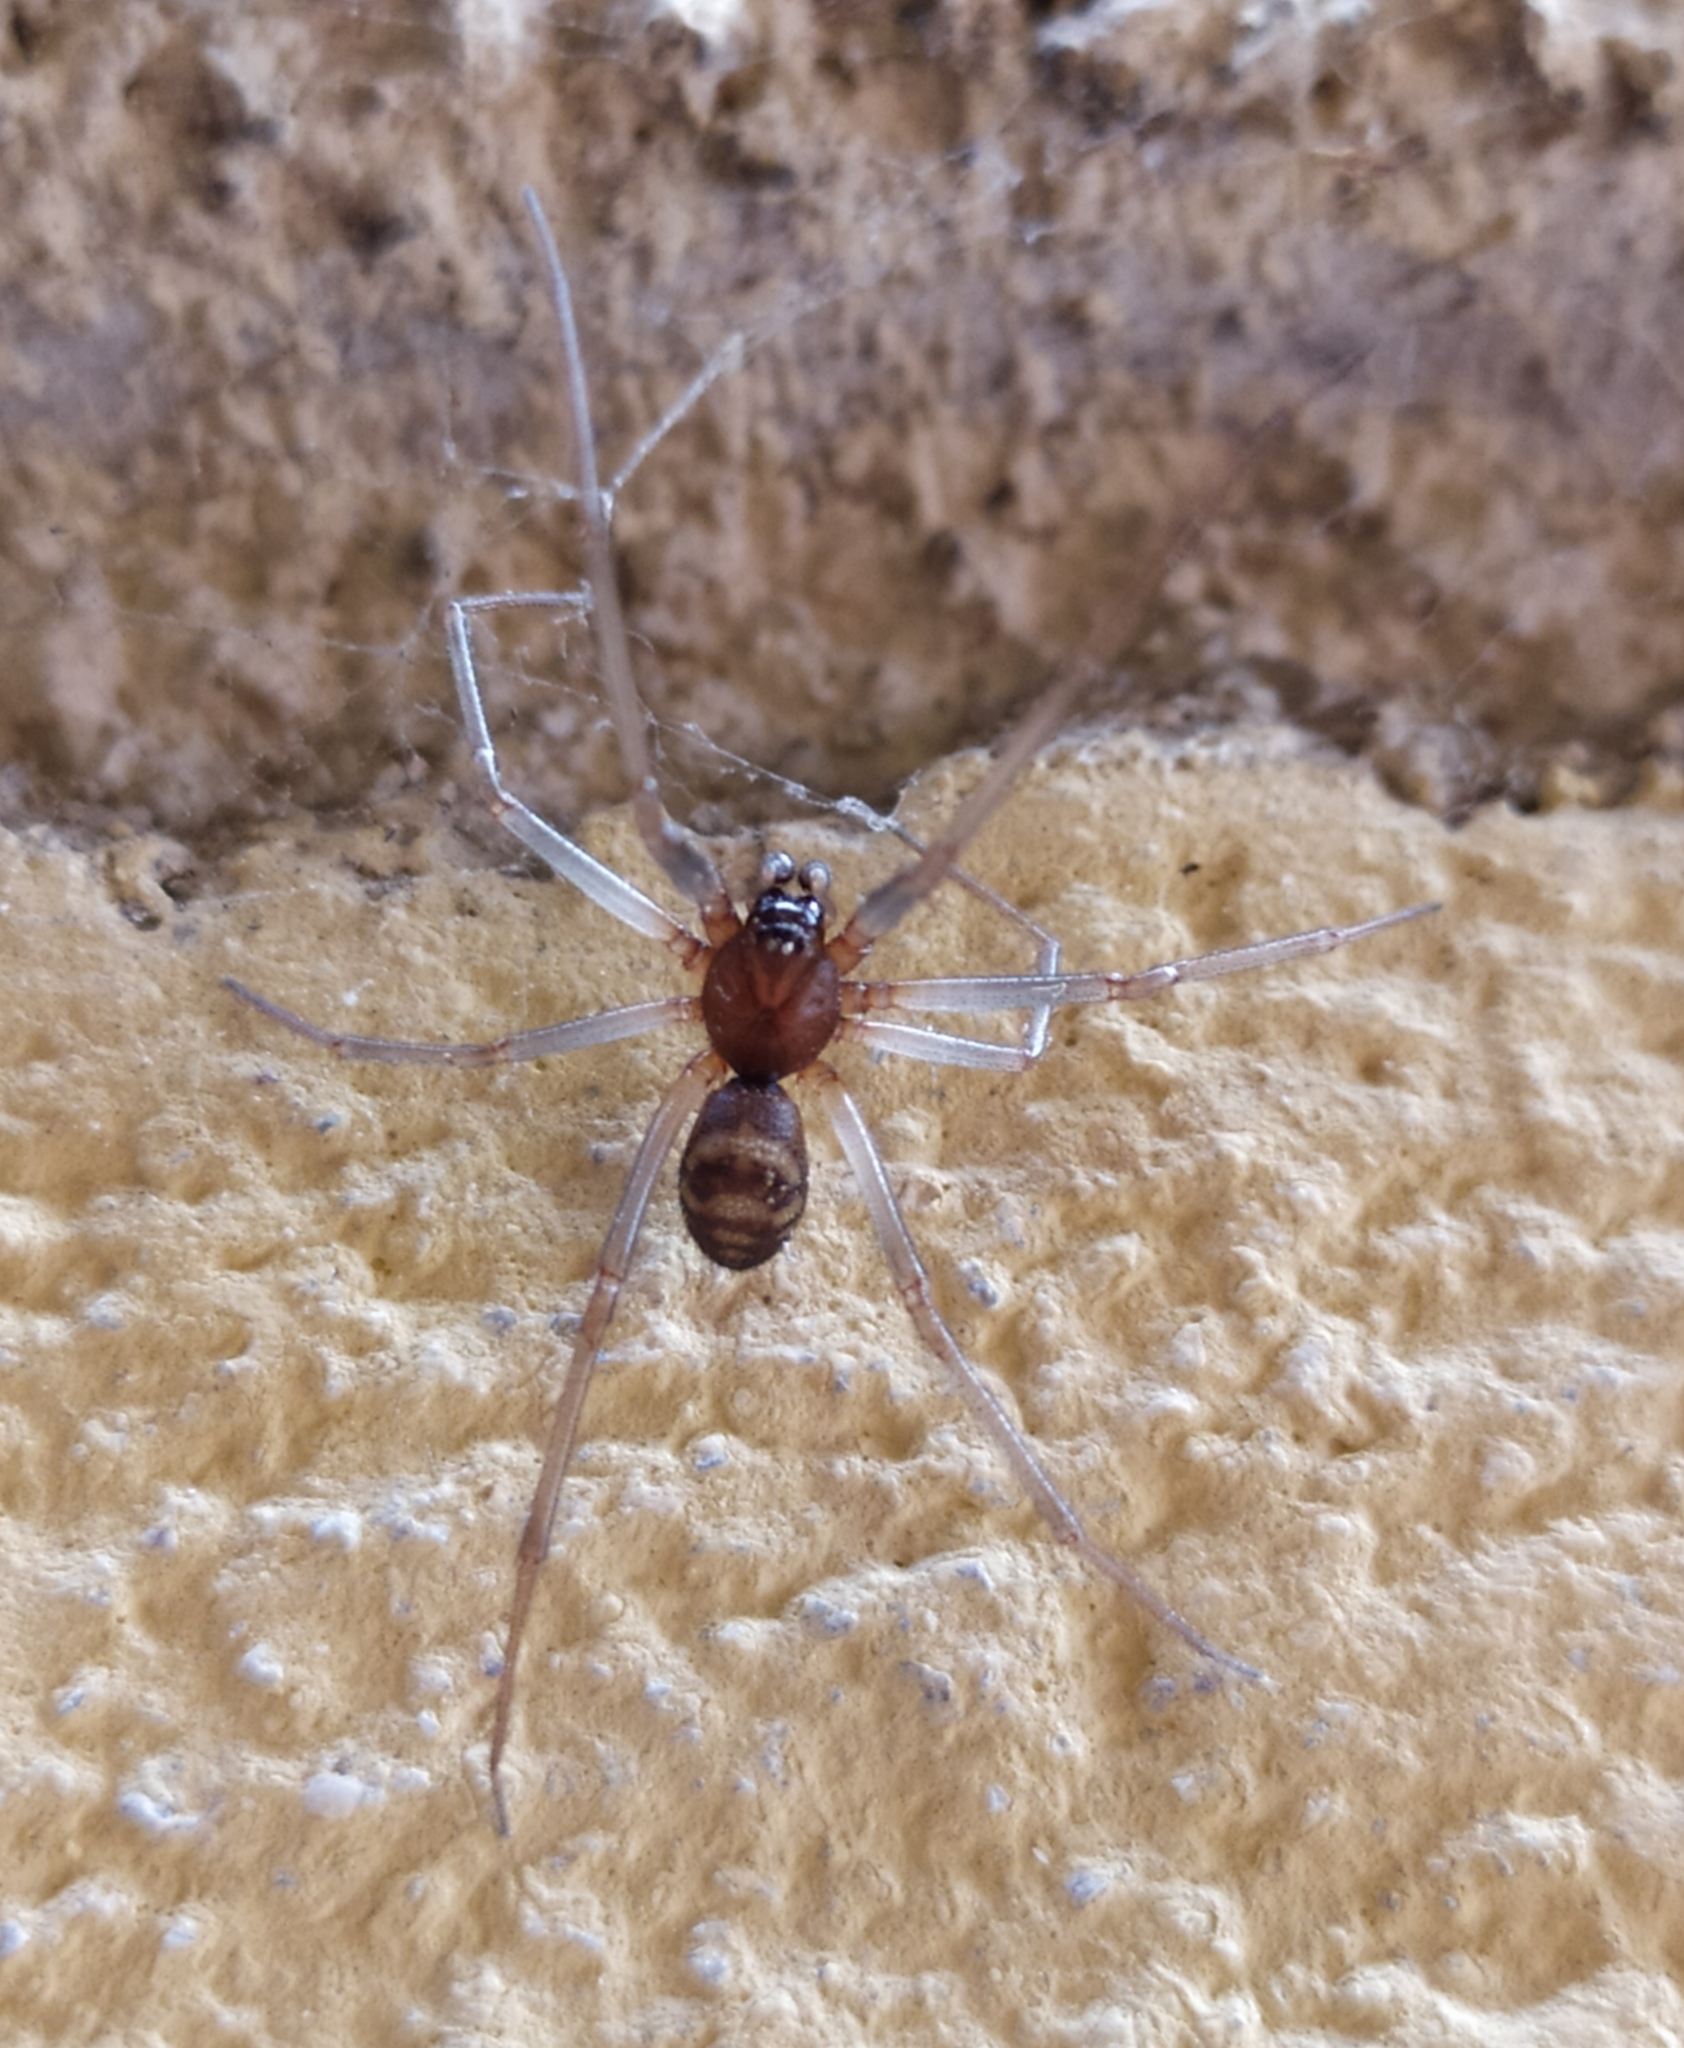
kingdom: Animalia
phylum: Arthropoda
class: Arachnida
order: Araneae
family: Theridiidae
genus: Steatoda
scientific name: Steatoda grossa
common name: False black widow
